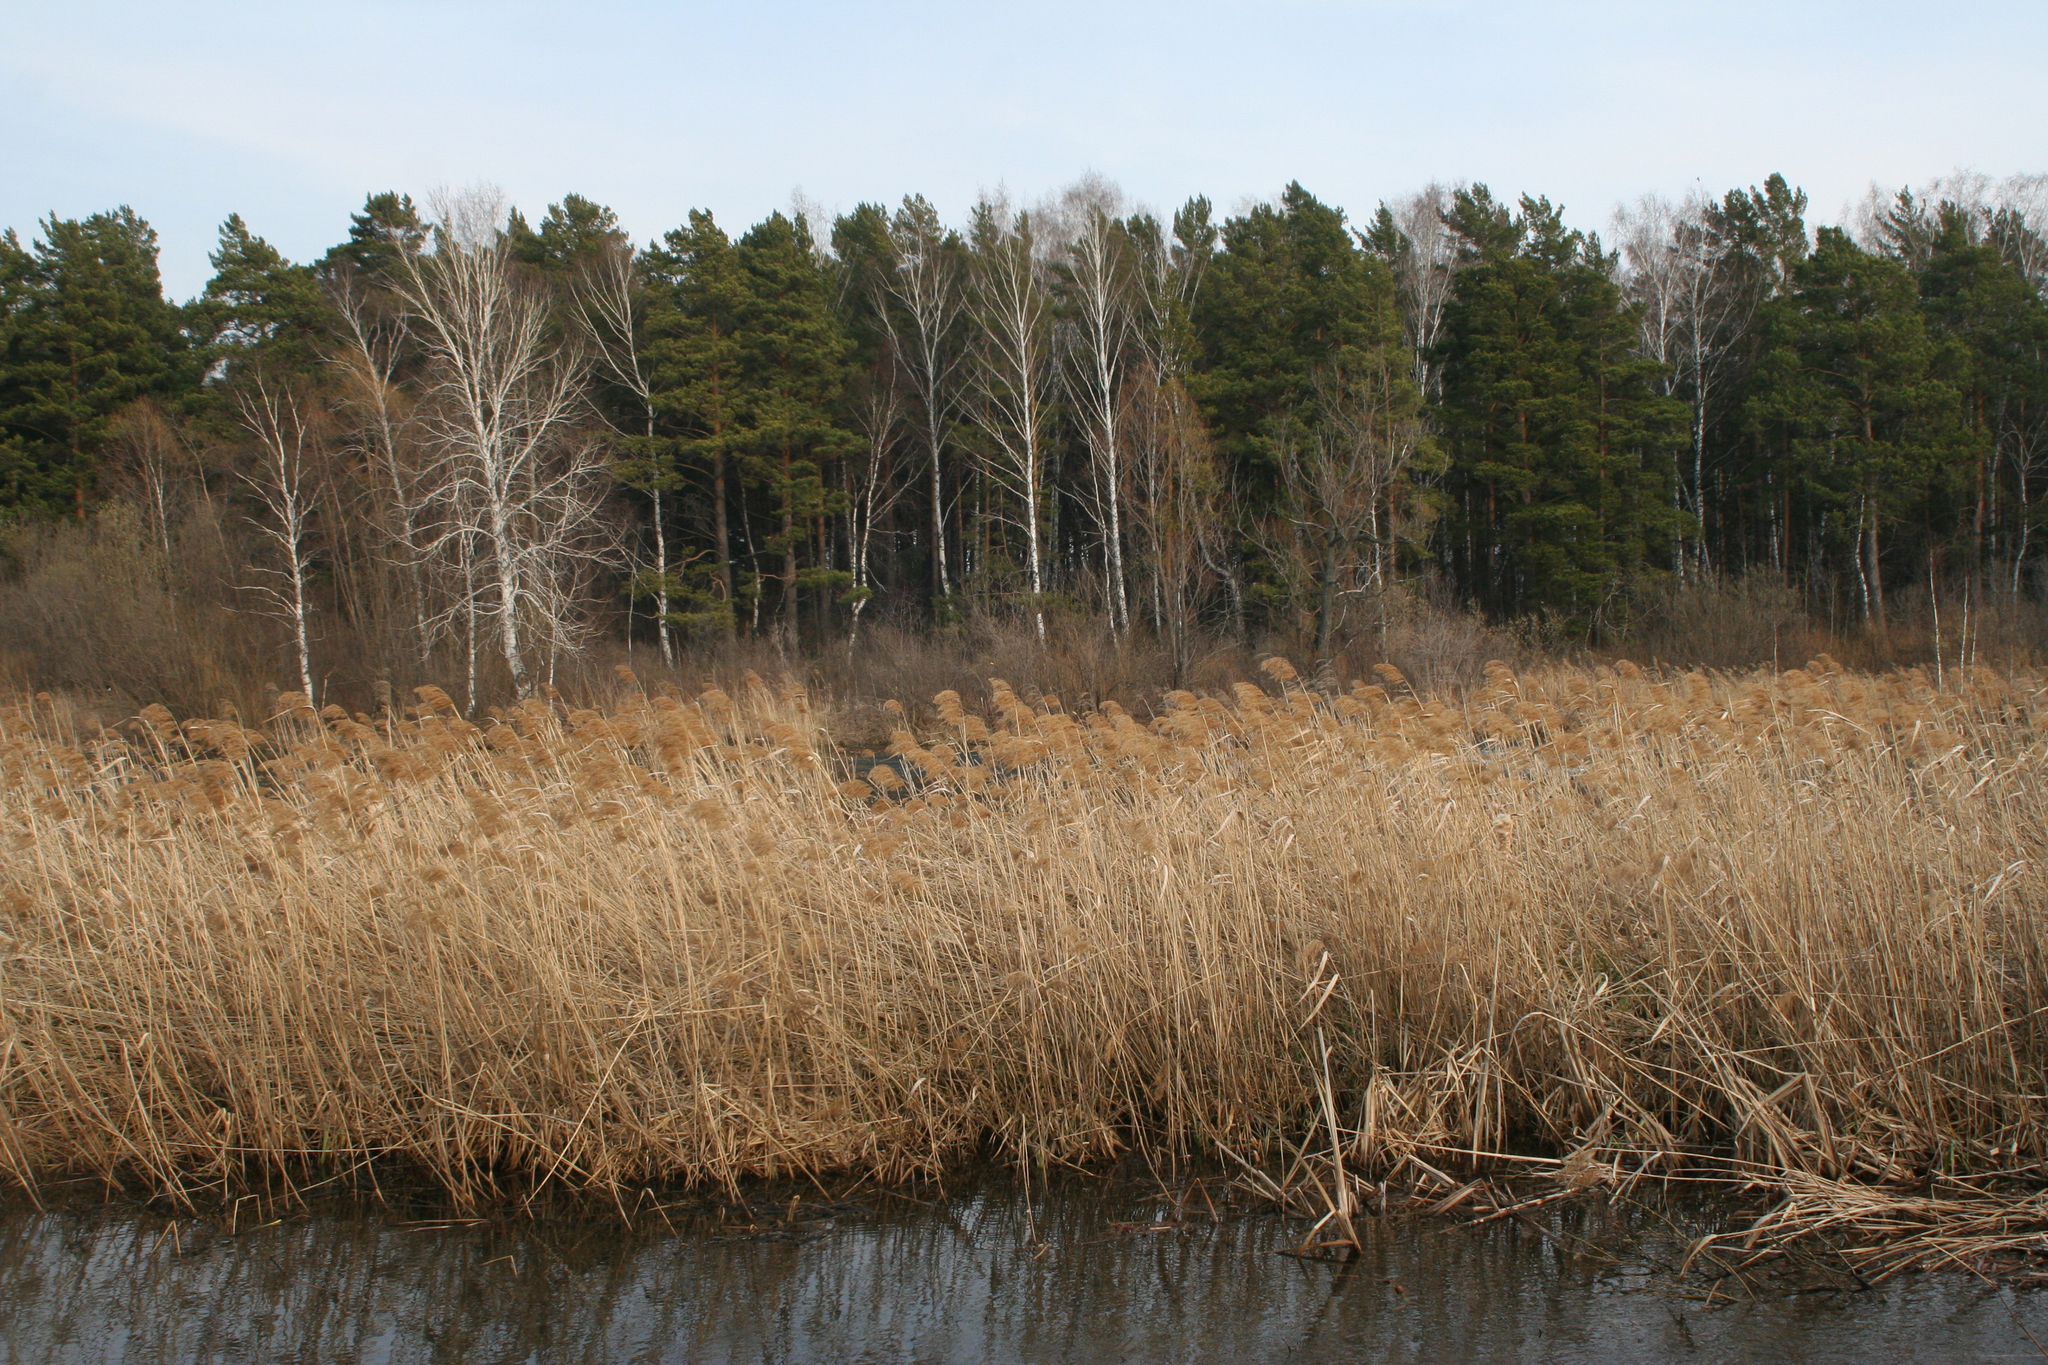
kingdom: Plantae
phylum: Tracheophyta
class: Liliopsida
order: Poales
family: Poaceae
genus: Phragmites
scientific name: Phragmites australis
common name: Common reed
